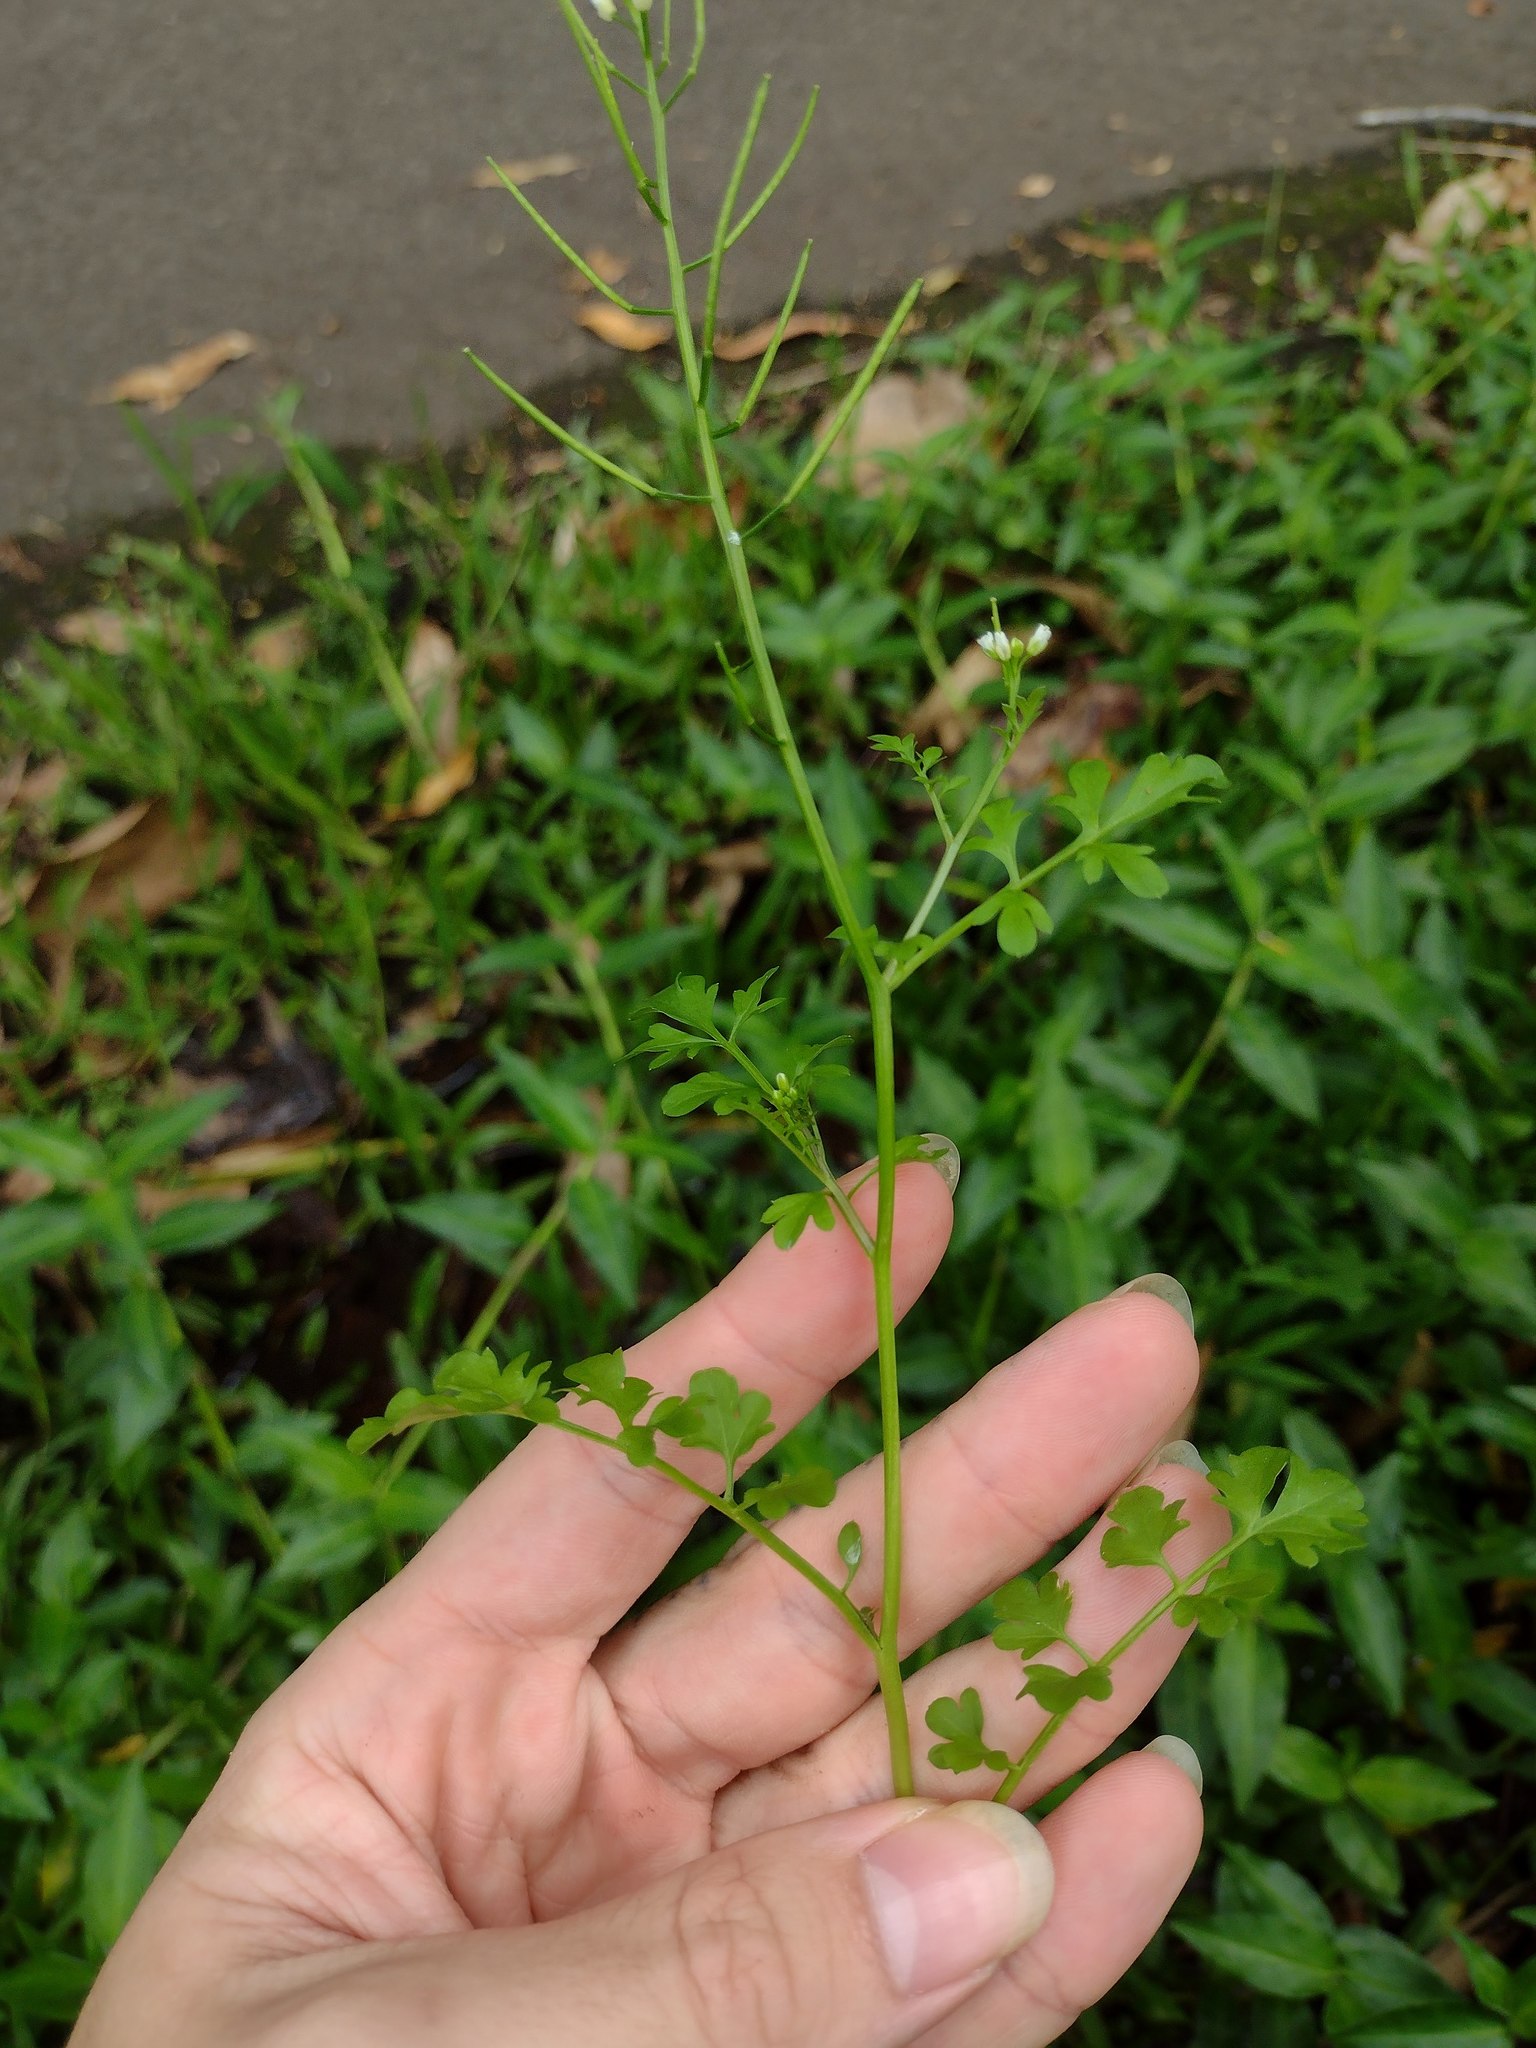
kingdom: Plantae
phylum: Tracheophyta
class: Magnoliopsida
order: Brassicales
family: Brassicaceae
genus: Cardamine
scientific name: Cardamine occulta
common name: Asian wavy bittercress
